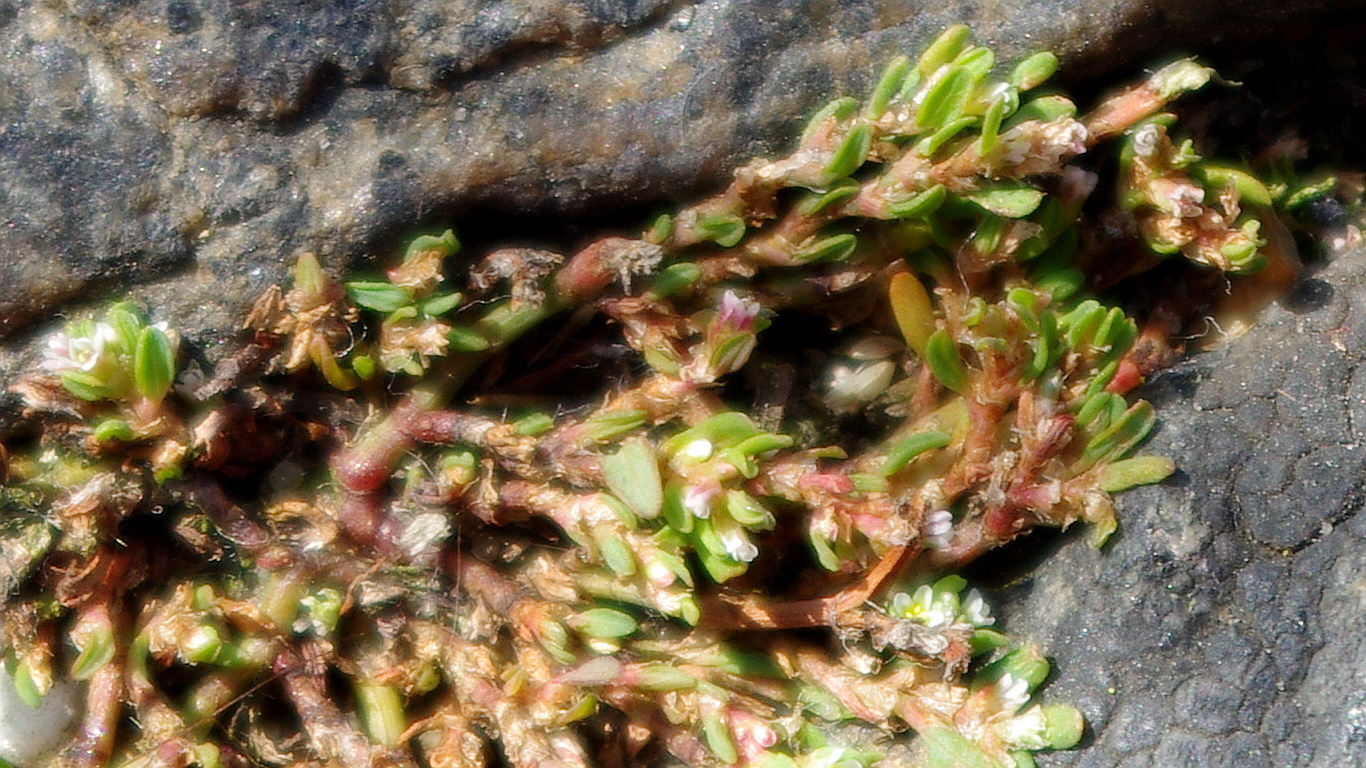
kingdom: Plantae
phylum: Tracheophyta
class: Magnoliopsida
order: Caryophyllales
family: Polygonaceae
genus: Polygonum
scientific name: Polygonum
